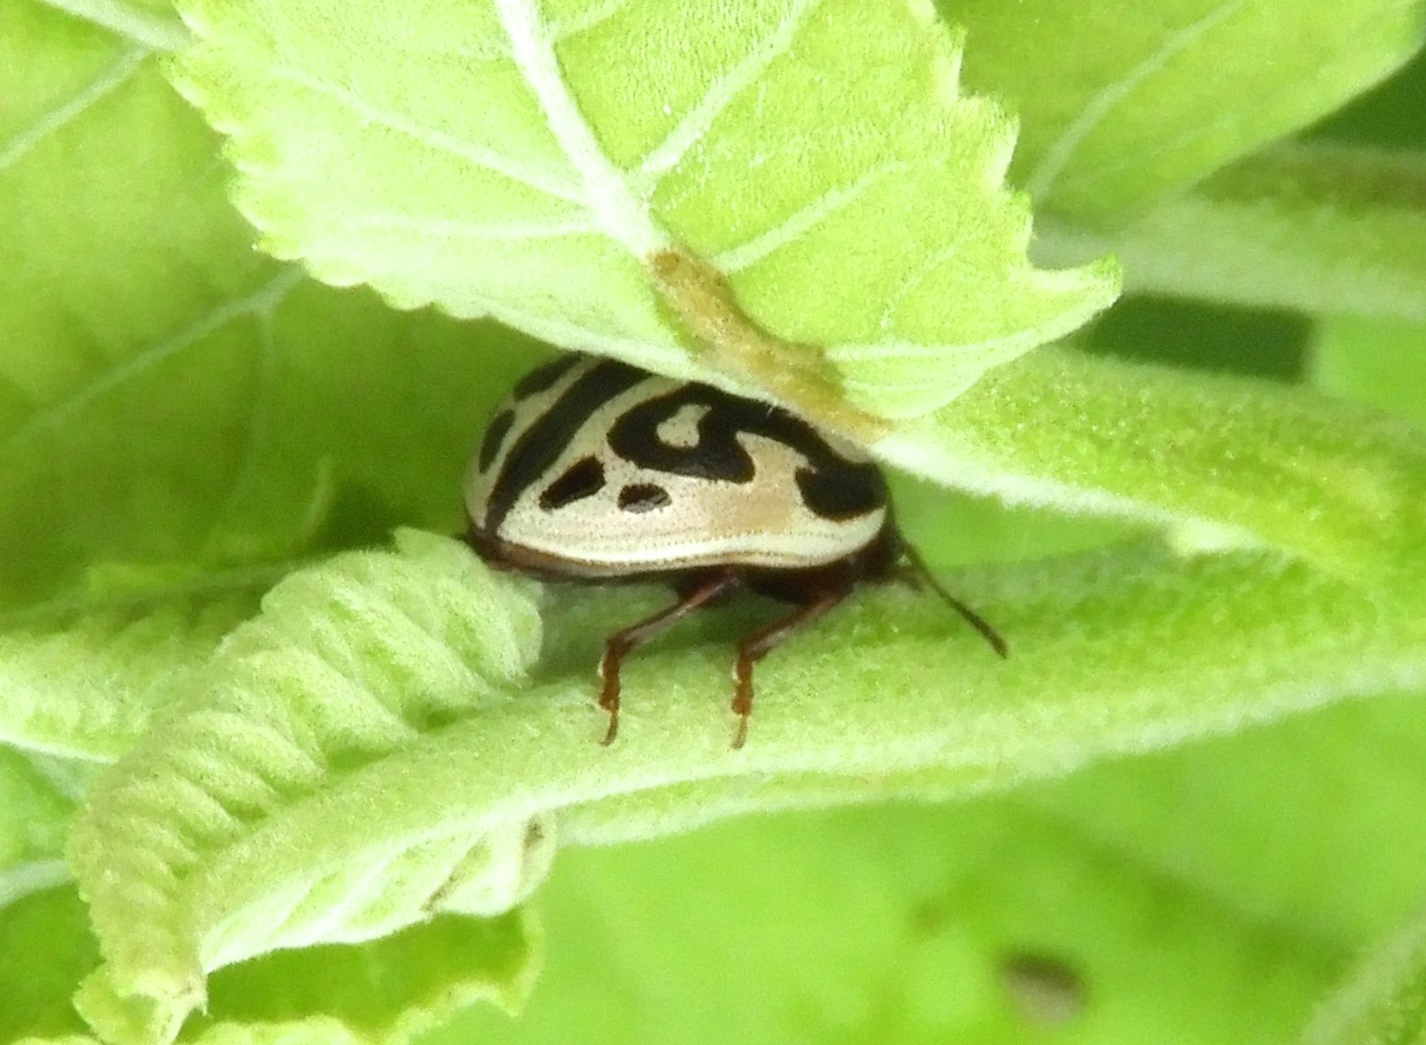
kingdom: Animalia
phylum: Arthropoda
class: Insecta
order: Coleoptera
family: Chrysomelidae
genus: Calligrapha
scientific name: Calligrapha
